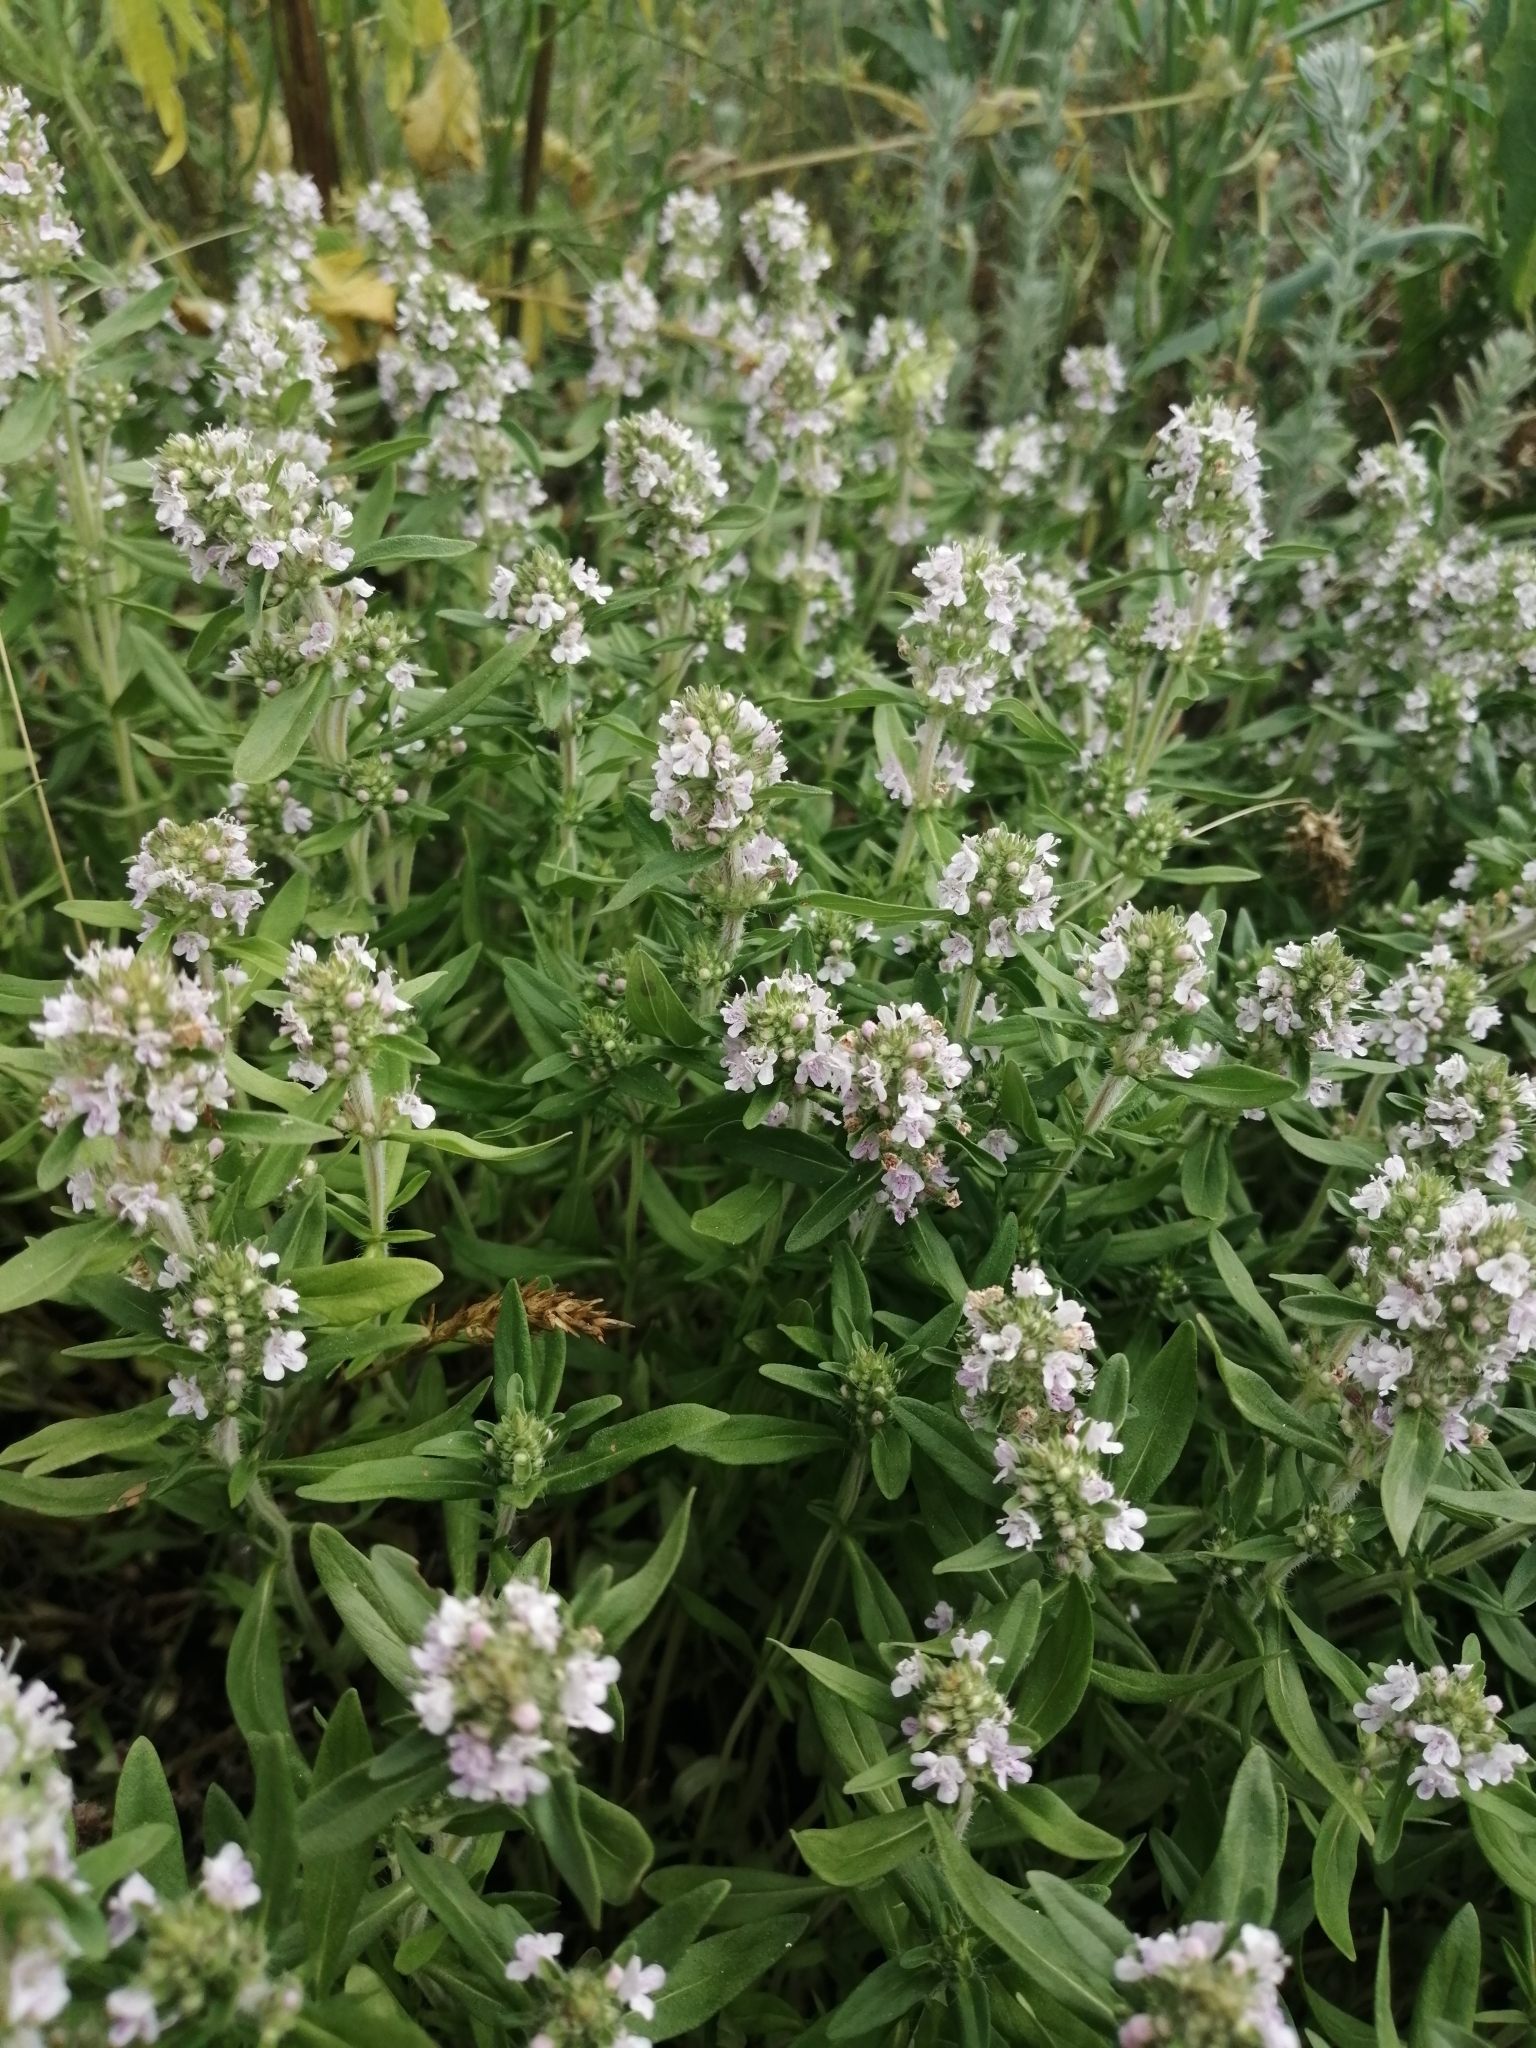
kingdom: Plantae
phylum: Tracheophyta
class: Magnoliopsida
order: Lamiales
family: Lamiaceae
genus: Thymus
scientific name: Thymus pannonicus
